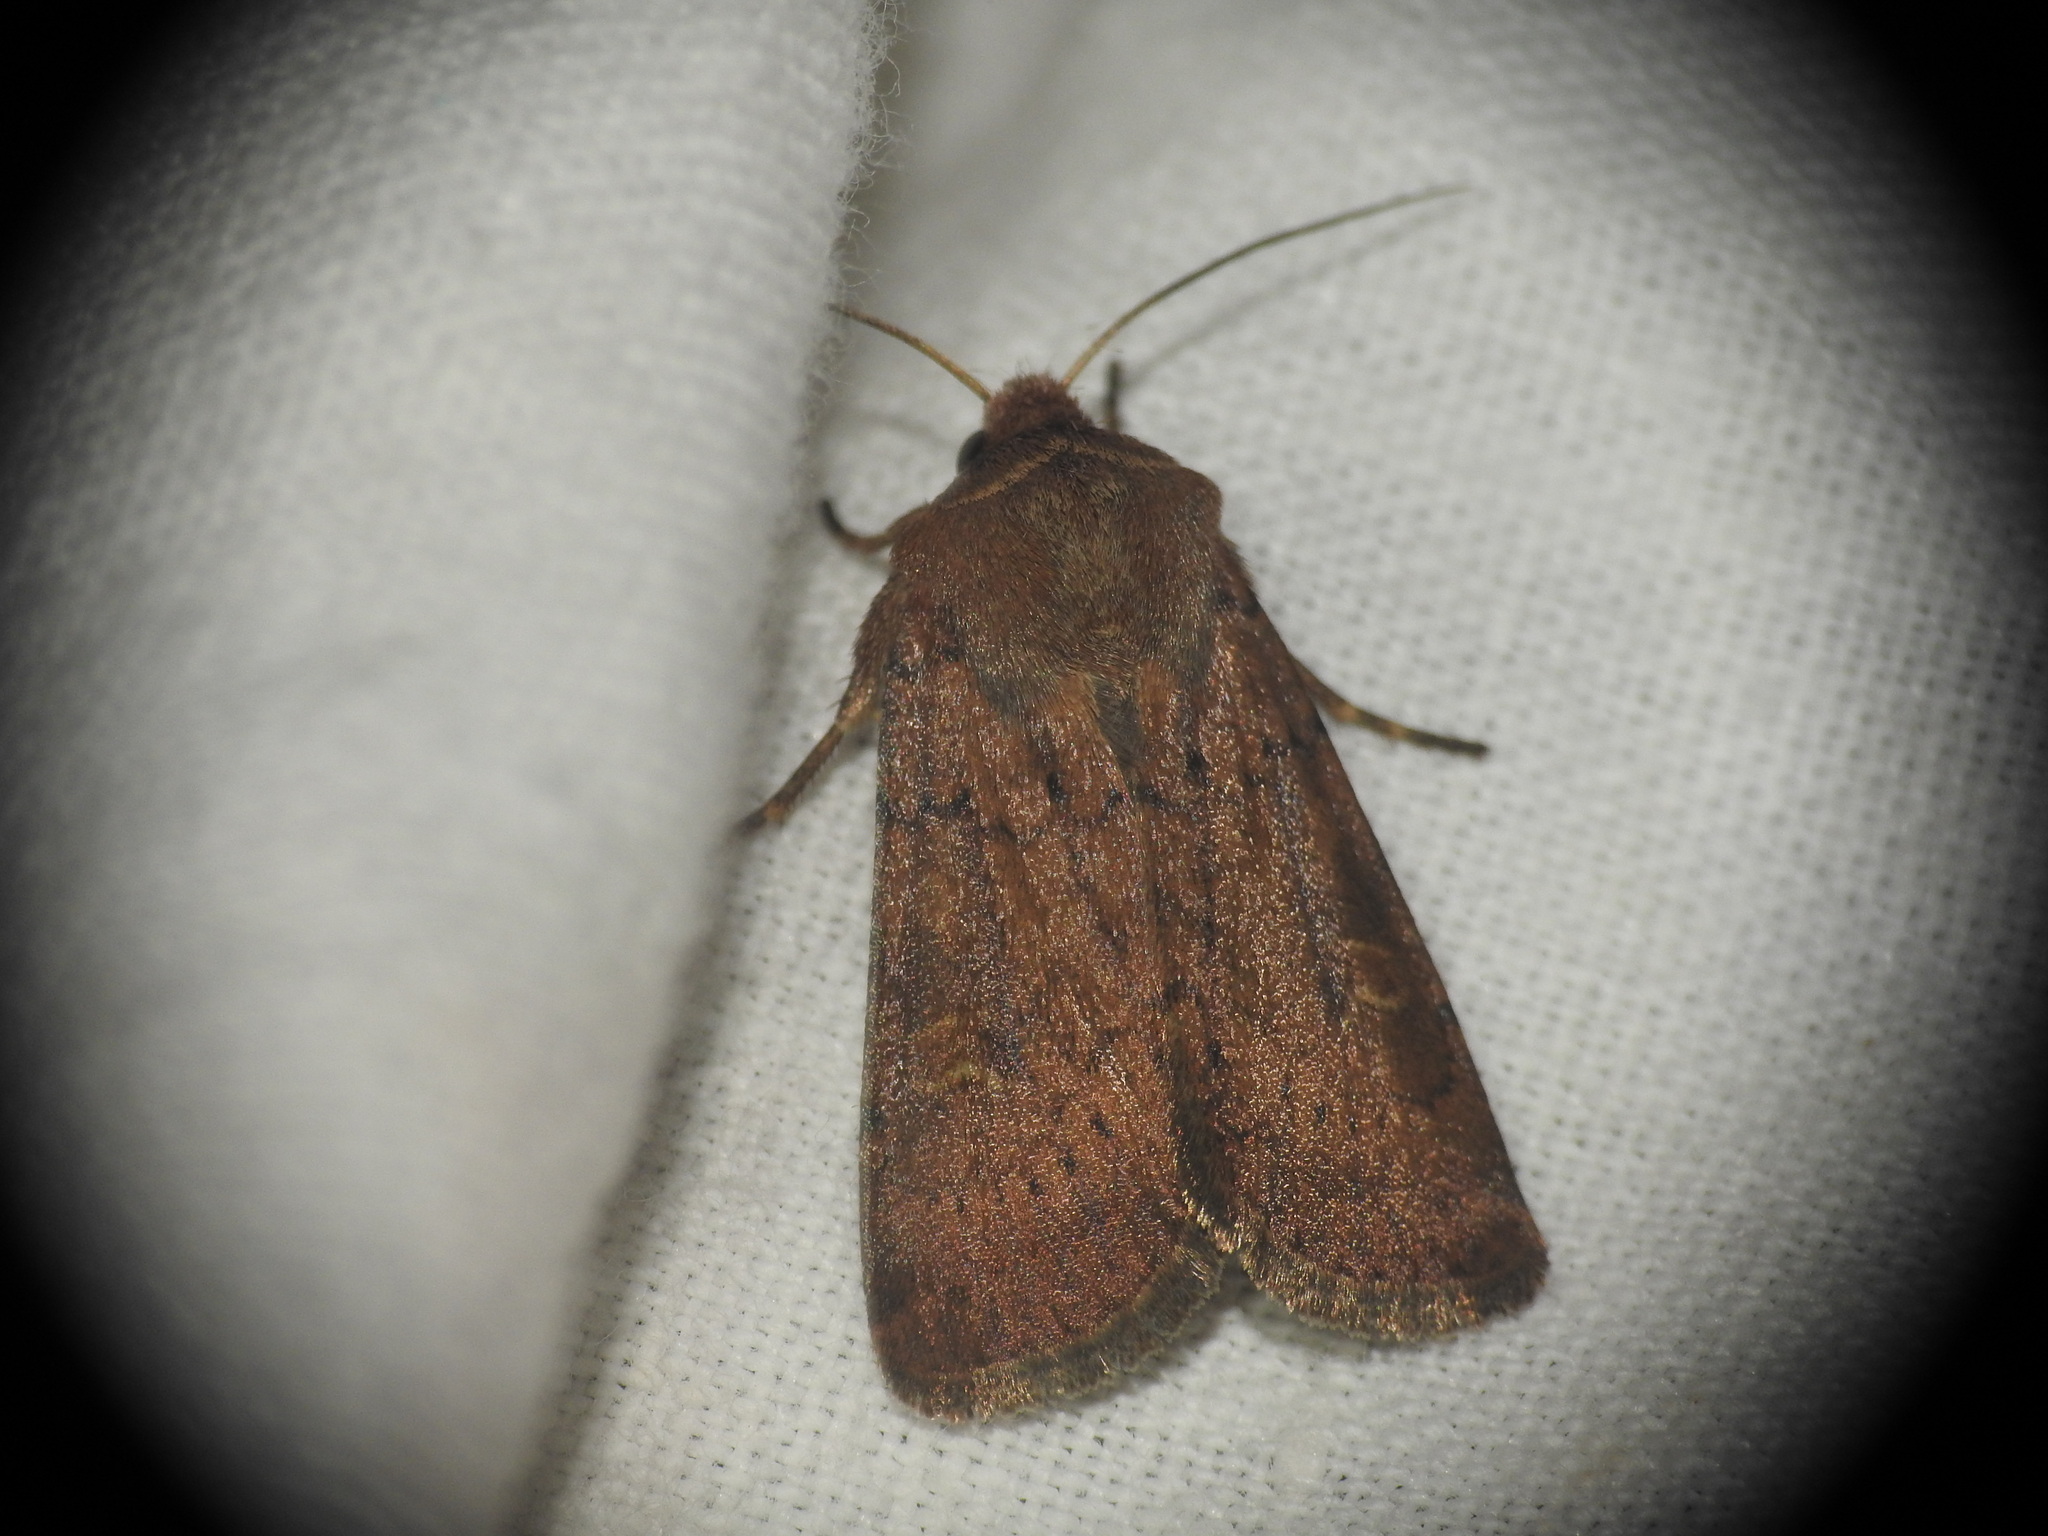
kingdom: Animalia
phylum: Arthropoda
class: Insecta
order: Lepidoptera
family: Noctuidae
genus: Xestia
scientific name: Xestia xanthographa
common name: Square-spot rustic
